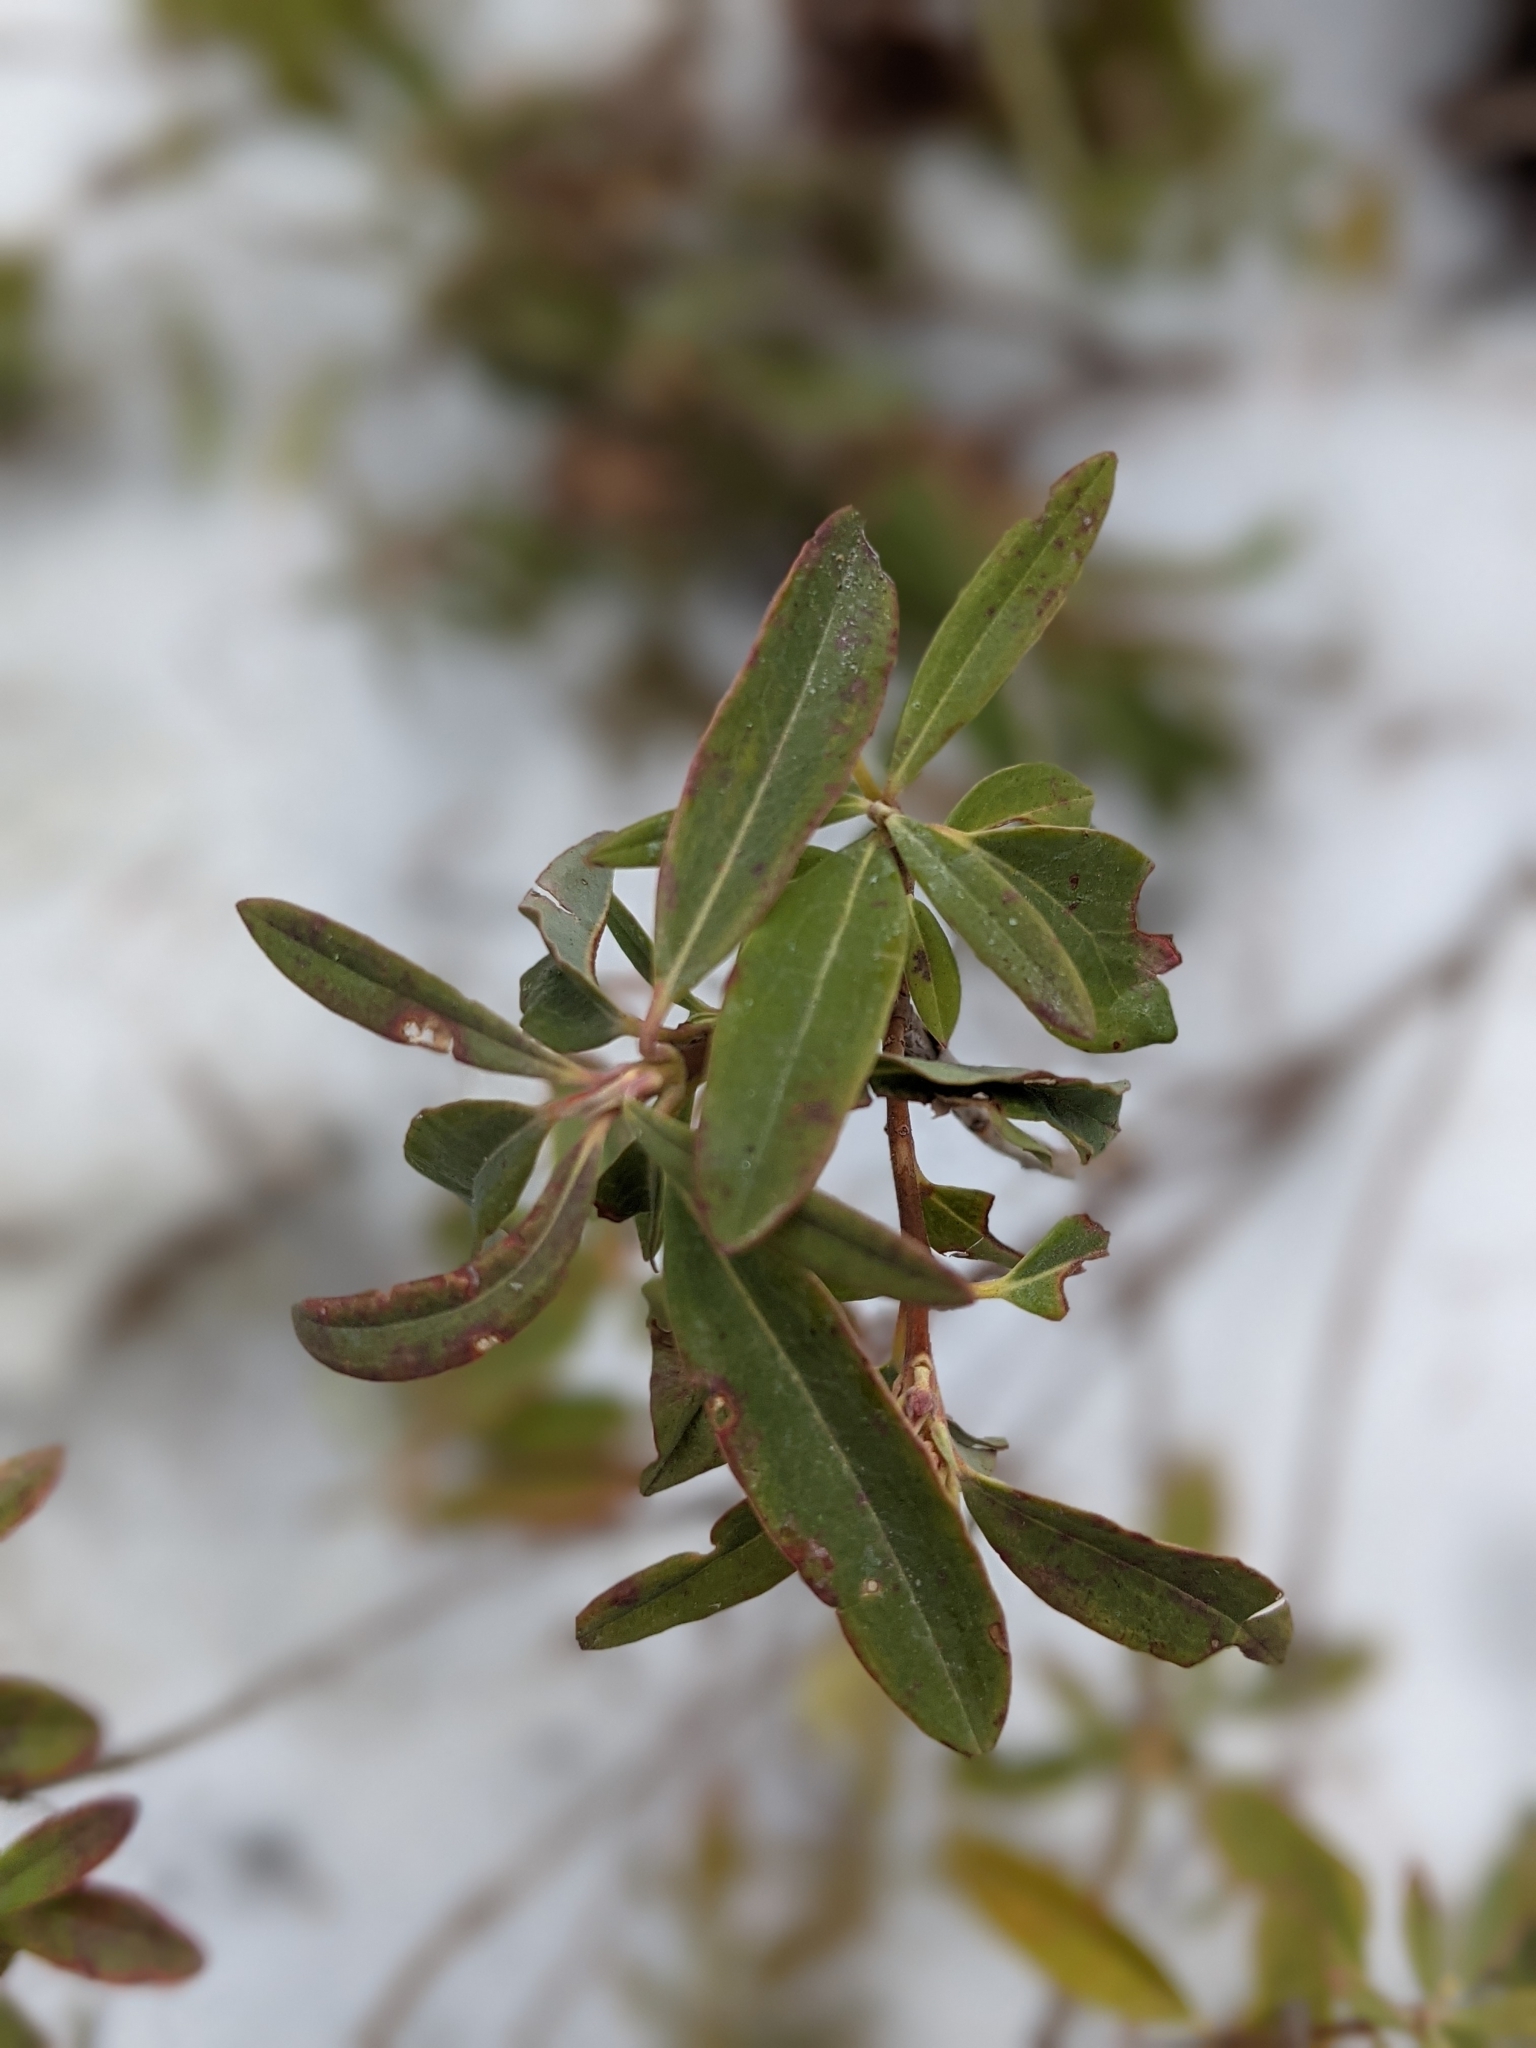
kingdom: Plantae
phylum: Tracheophyta
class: Magnoliopsida
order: Ericales
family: Ericaceae
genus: Kalmia
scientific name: Kalmia angustifolia
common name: Sheep-laurel
